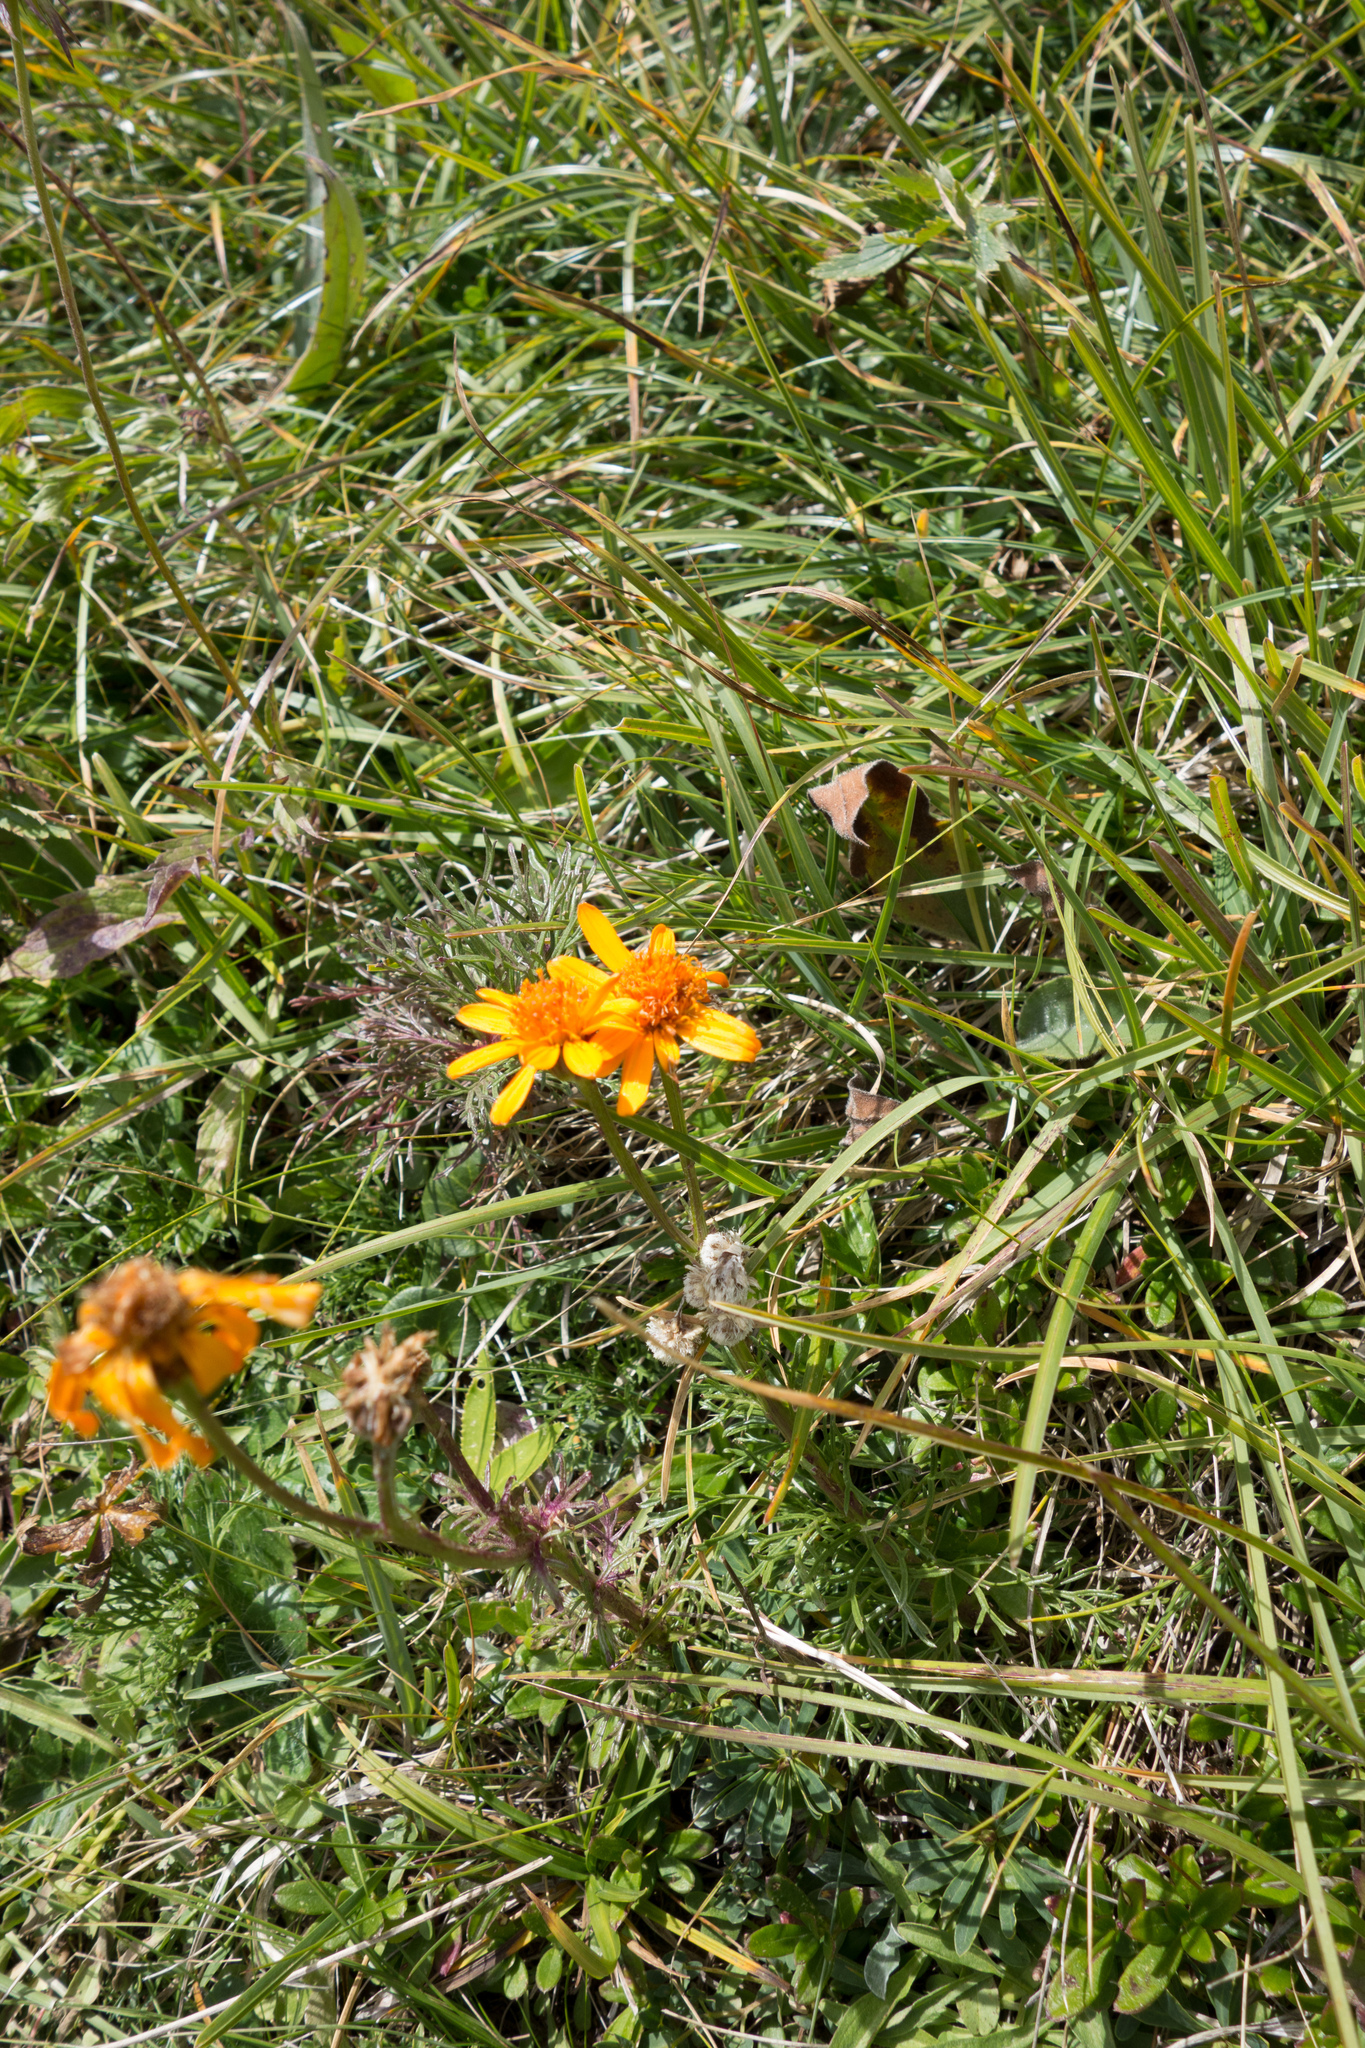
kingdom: Plantae
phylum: Tracheophyta
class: Magnoliopsida
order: Asterales
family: Asteraceae
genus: Jacobaea
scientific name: Jacobaea abrotanifolia
